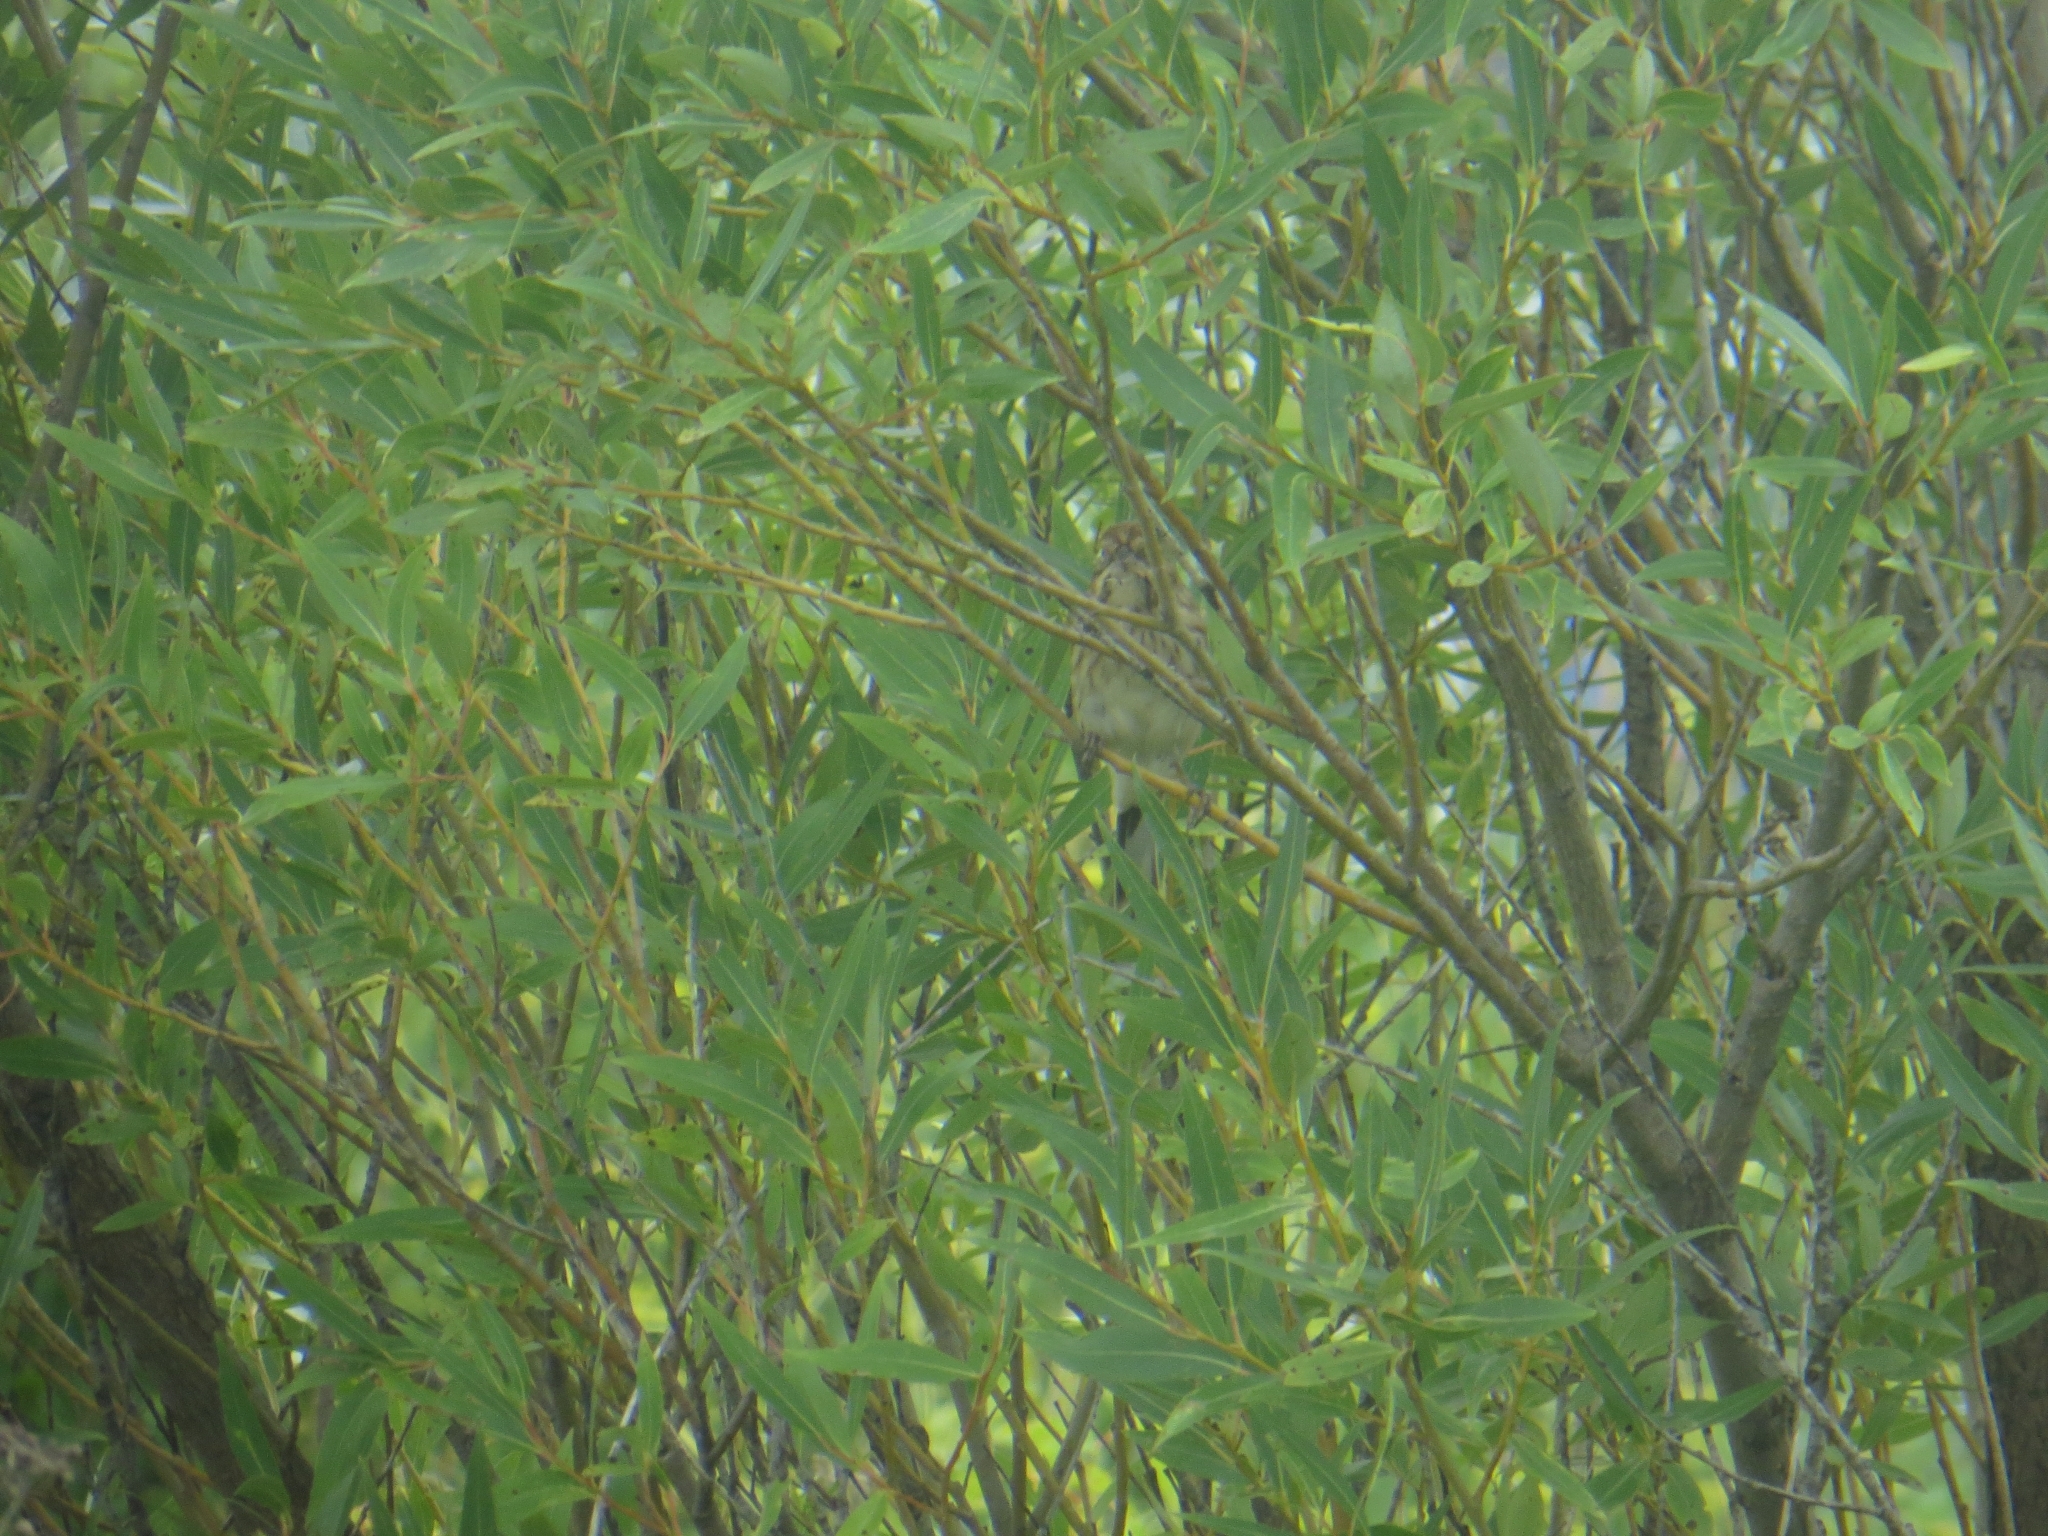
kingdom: Animalia
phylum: Chordata
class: Aves
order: Passeriformes
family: Emberizidae
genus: Emberiza
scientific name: Emberiza schoeniclus
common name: Reed bunting
